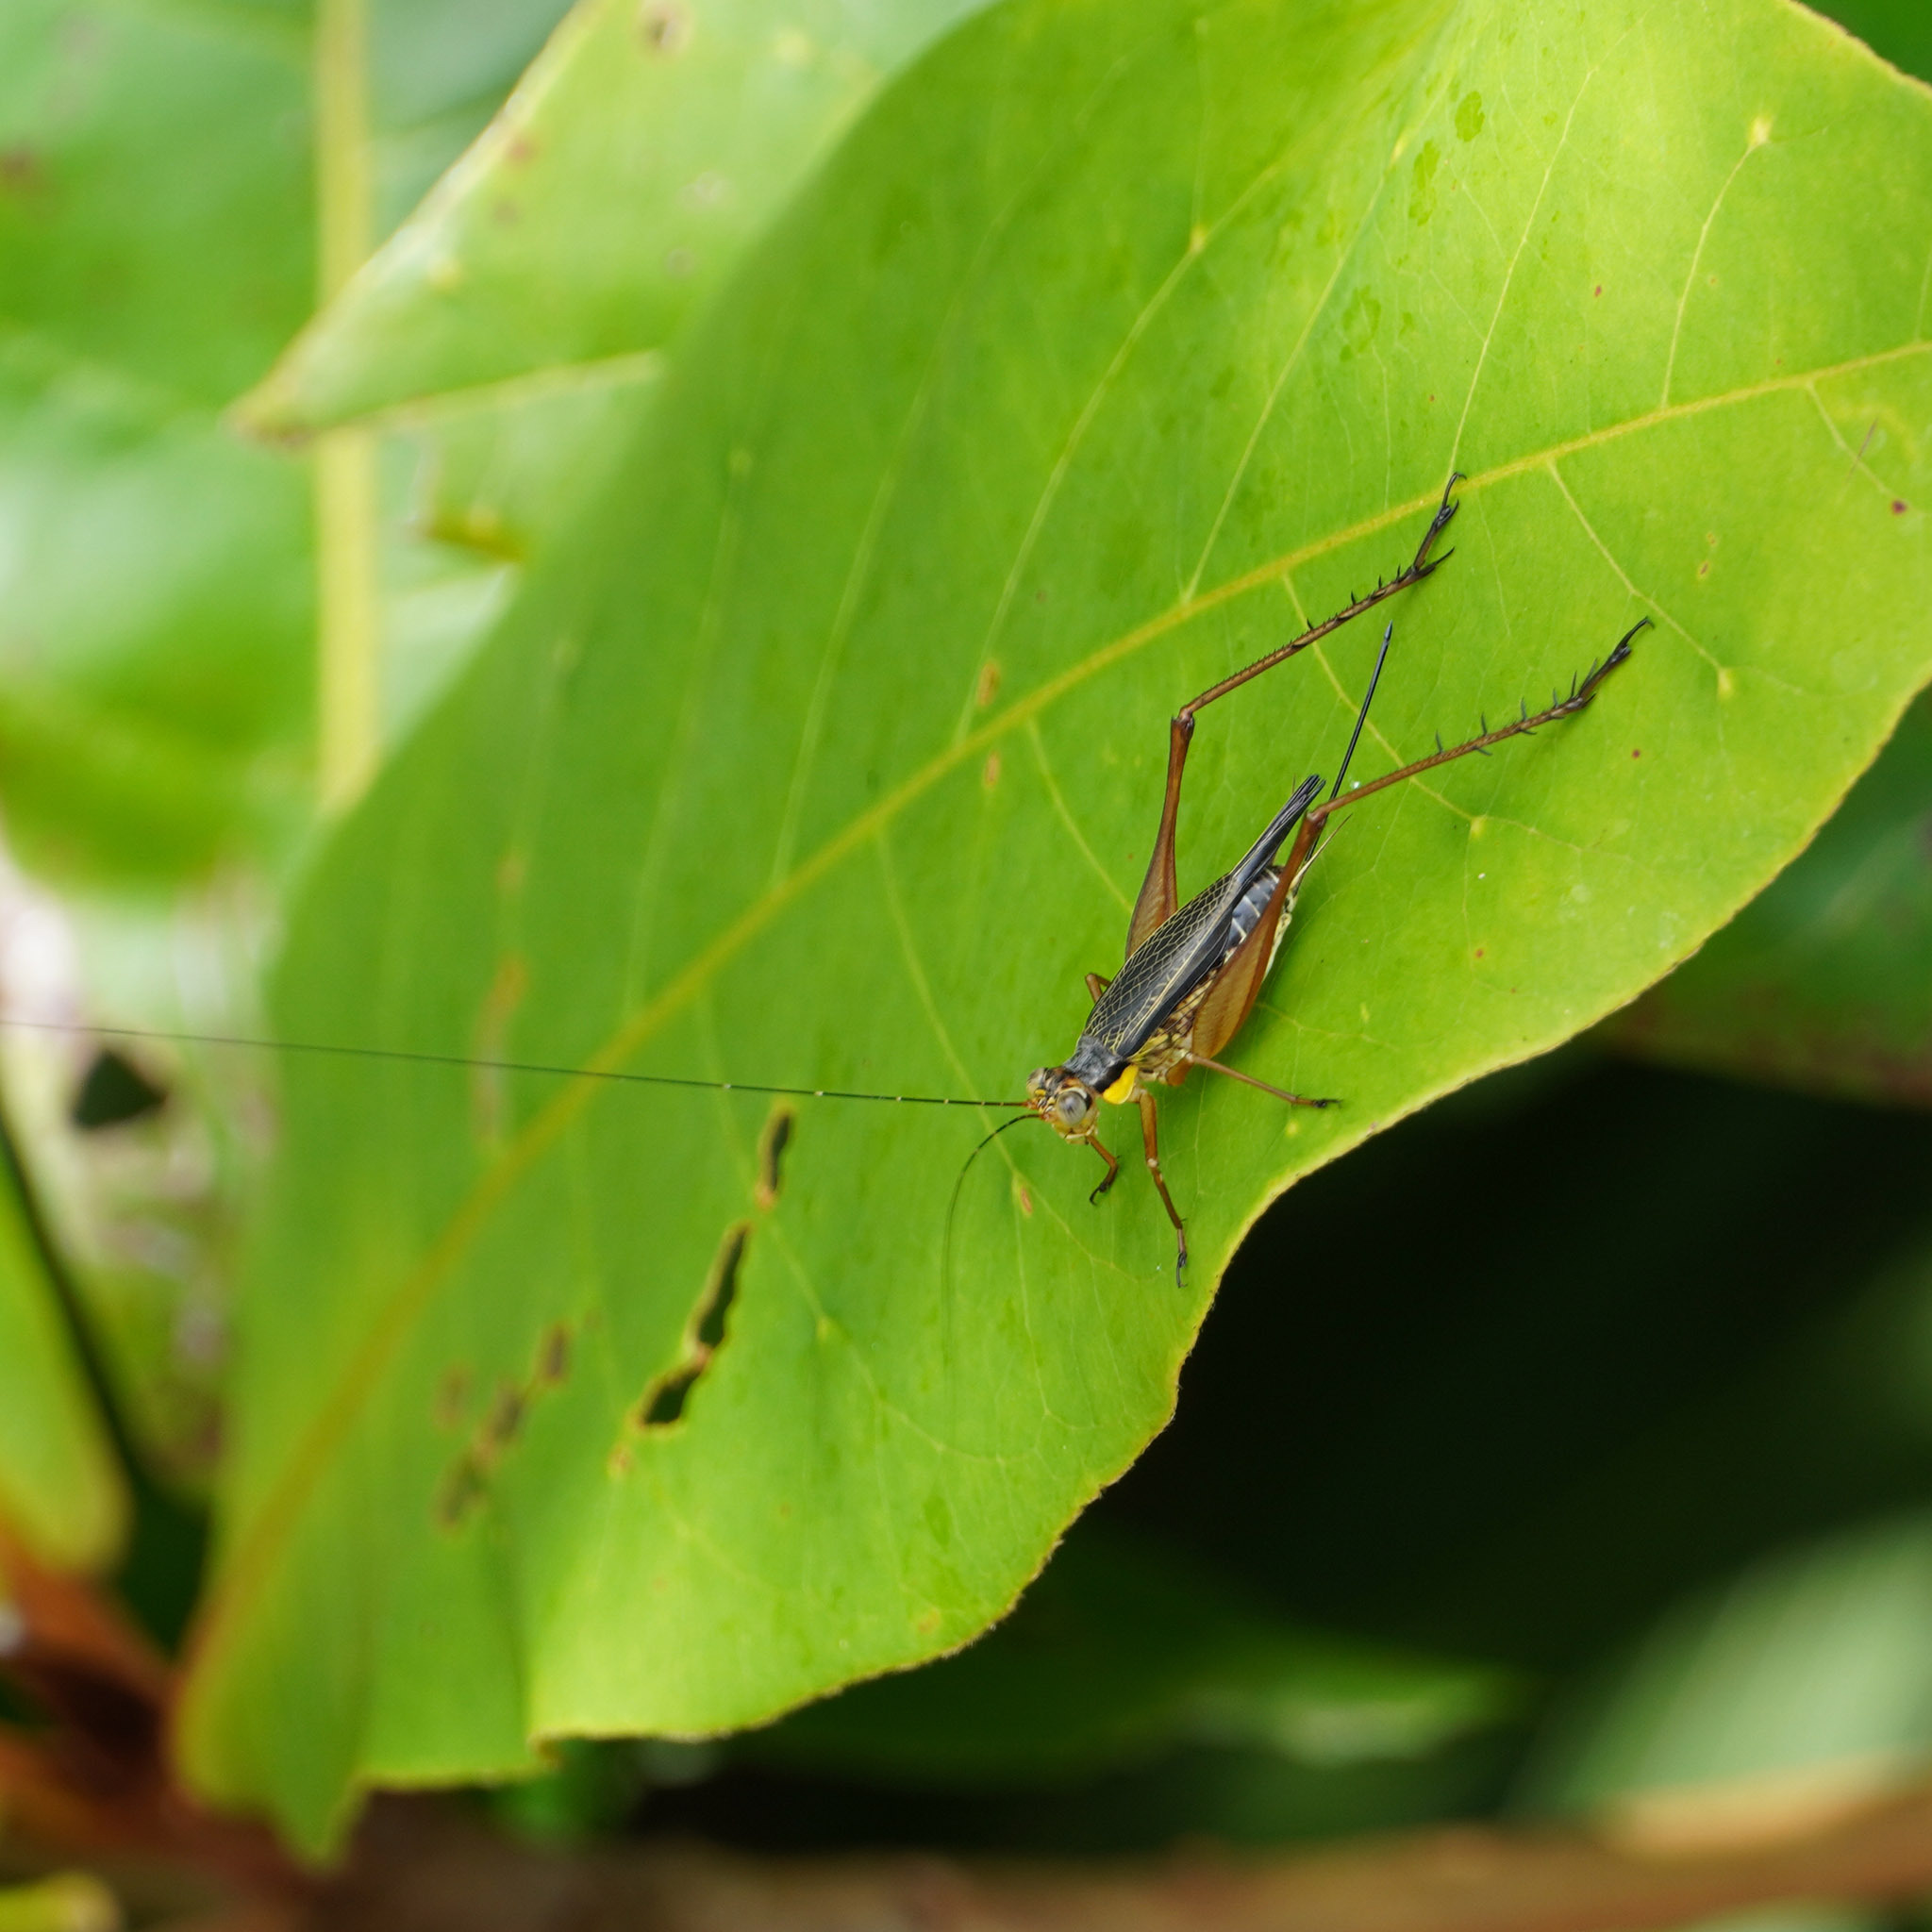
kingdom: Animalia
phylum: Arthropoda
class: Insecta
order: Orthoptera
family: Gryllidae
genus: Nisitrus
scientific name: Nisitrus malaya
